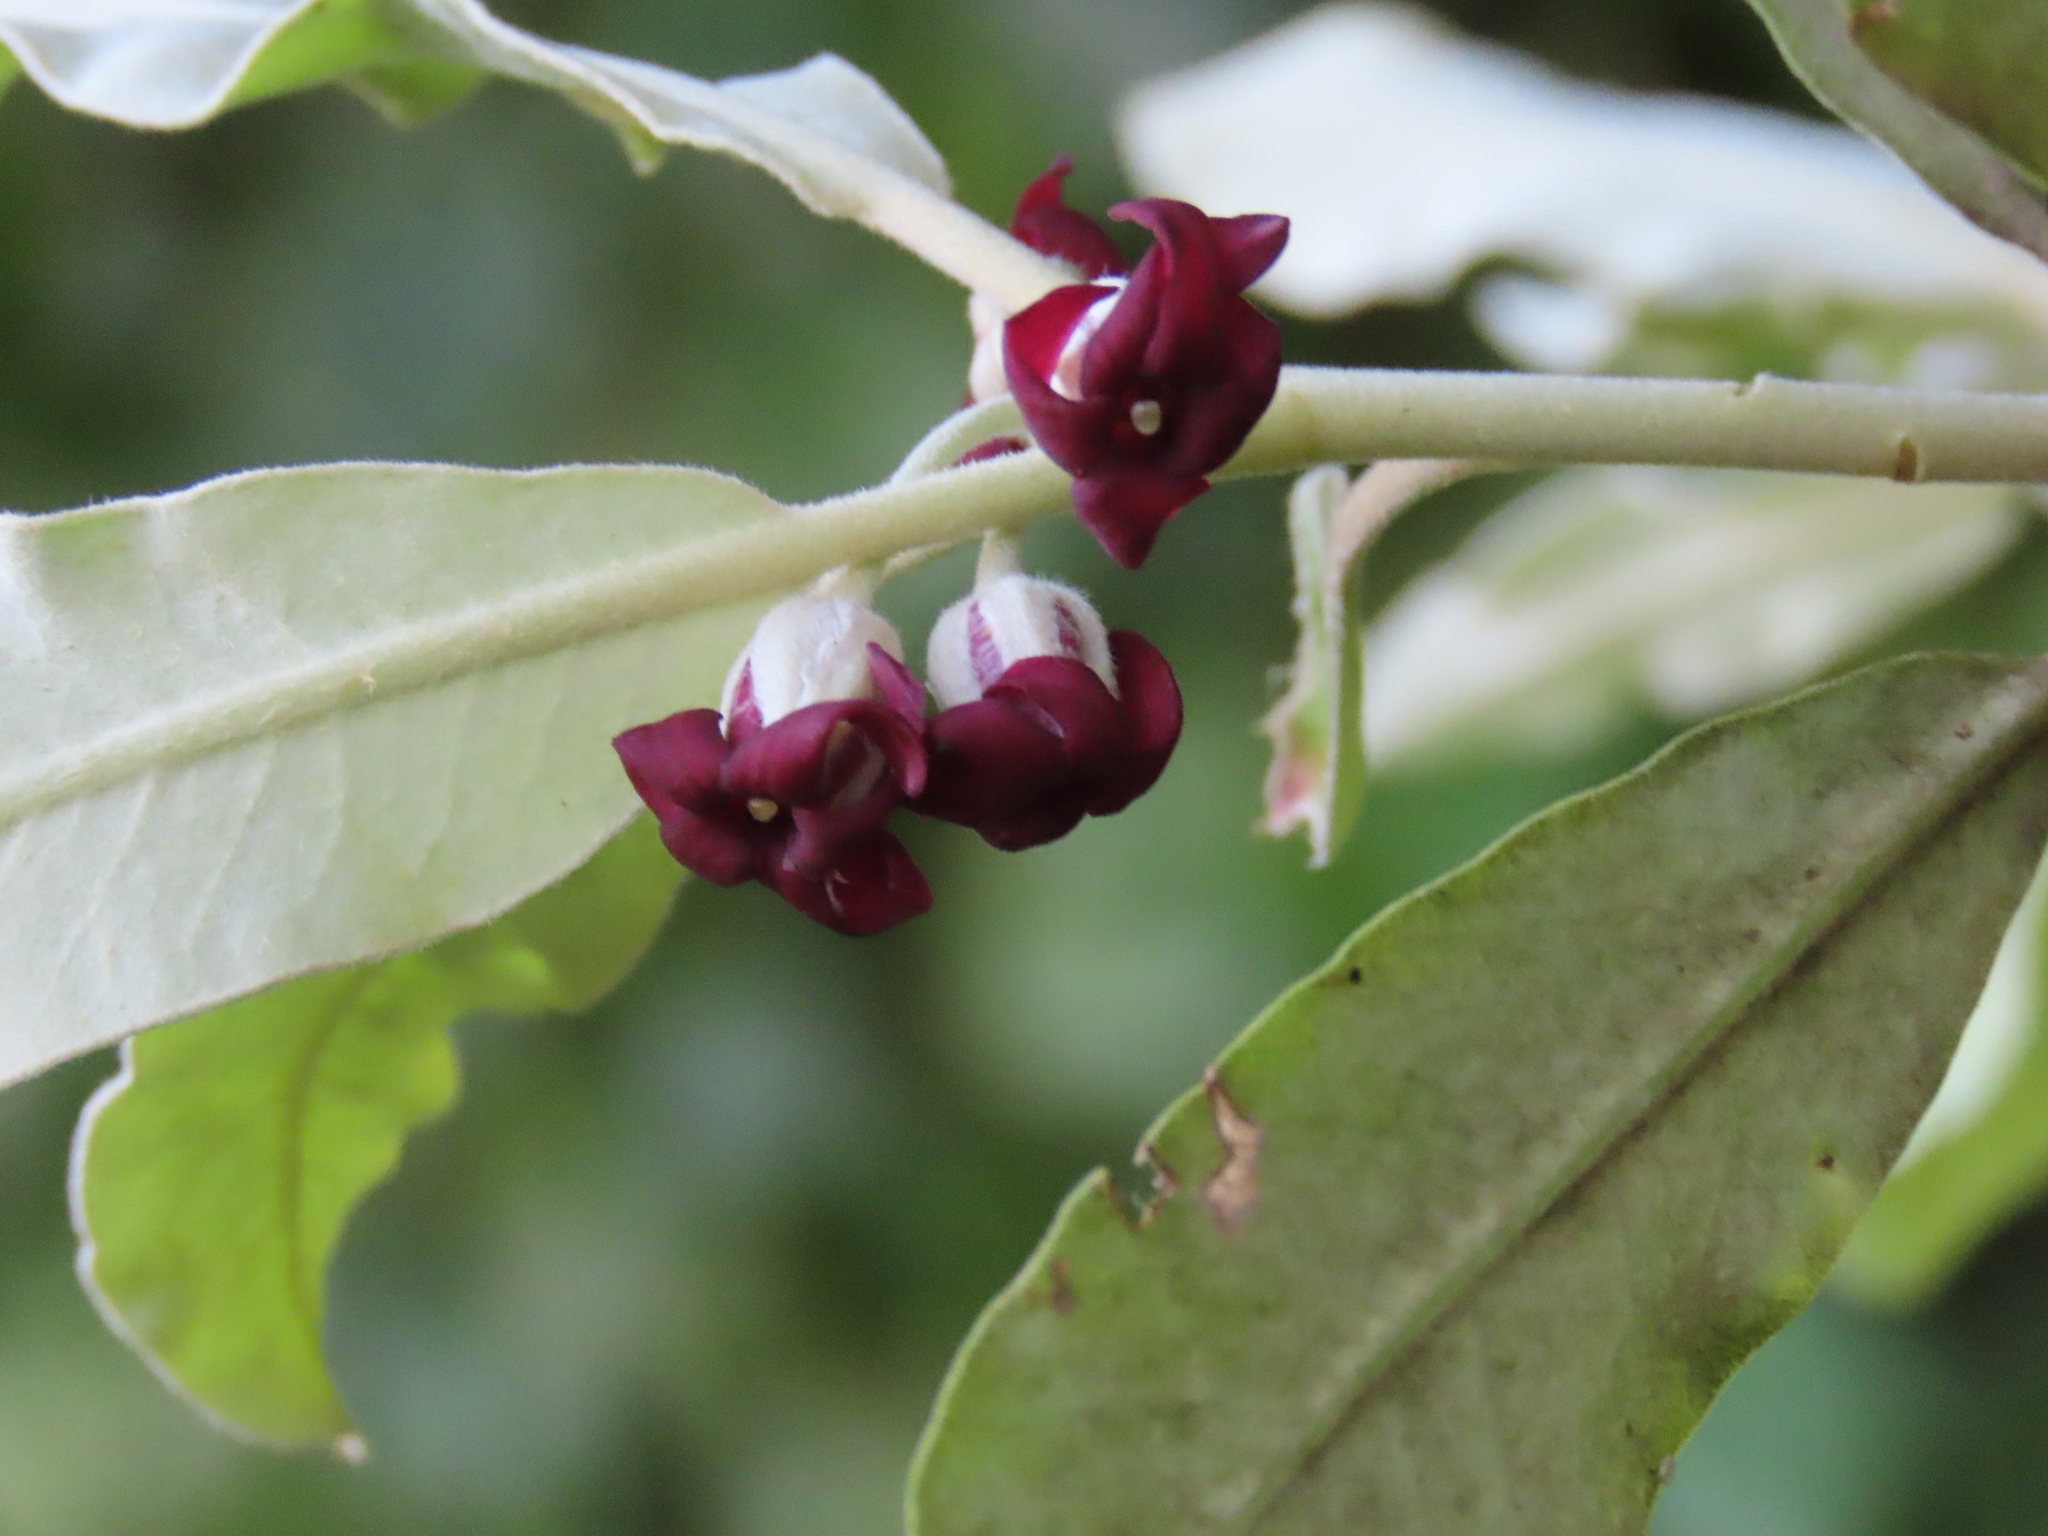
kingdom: Plantae
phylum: Tracheophyta
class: Magnoliopsida
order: Apiales
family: Pittosporaceae
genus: Pittosporum
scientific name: Pittosporum ralphii
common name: Ralph's desertwillow
